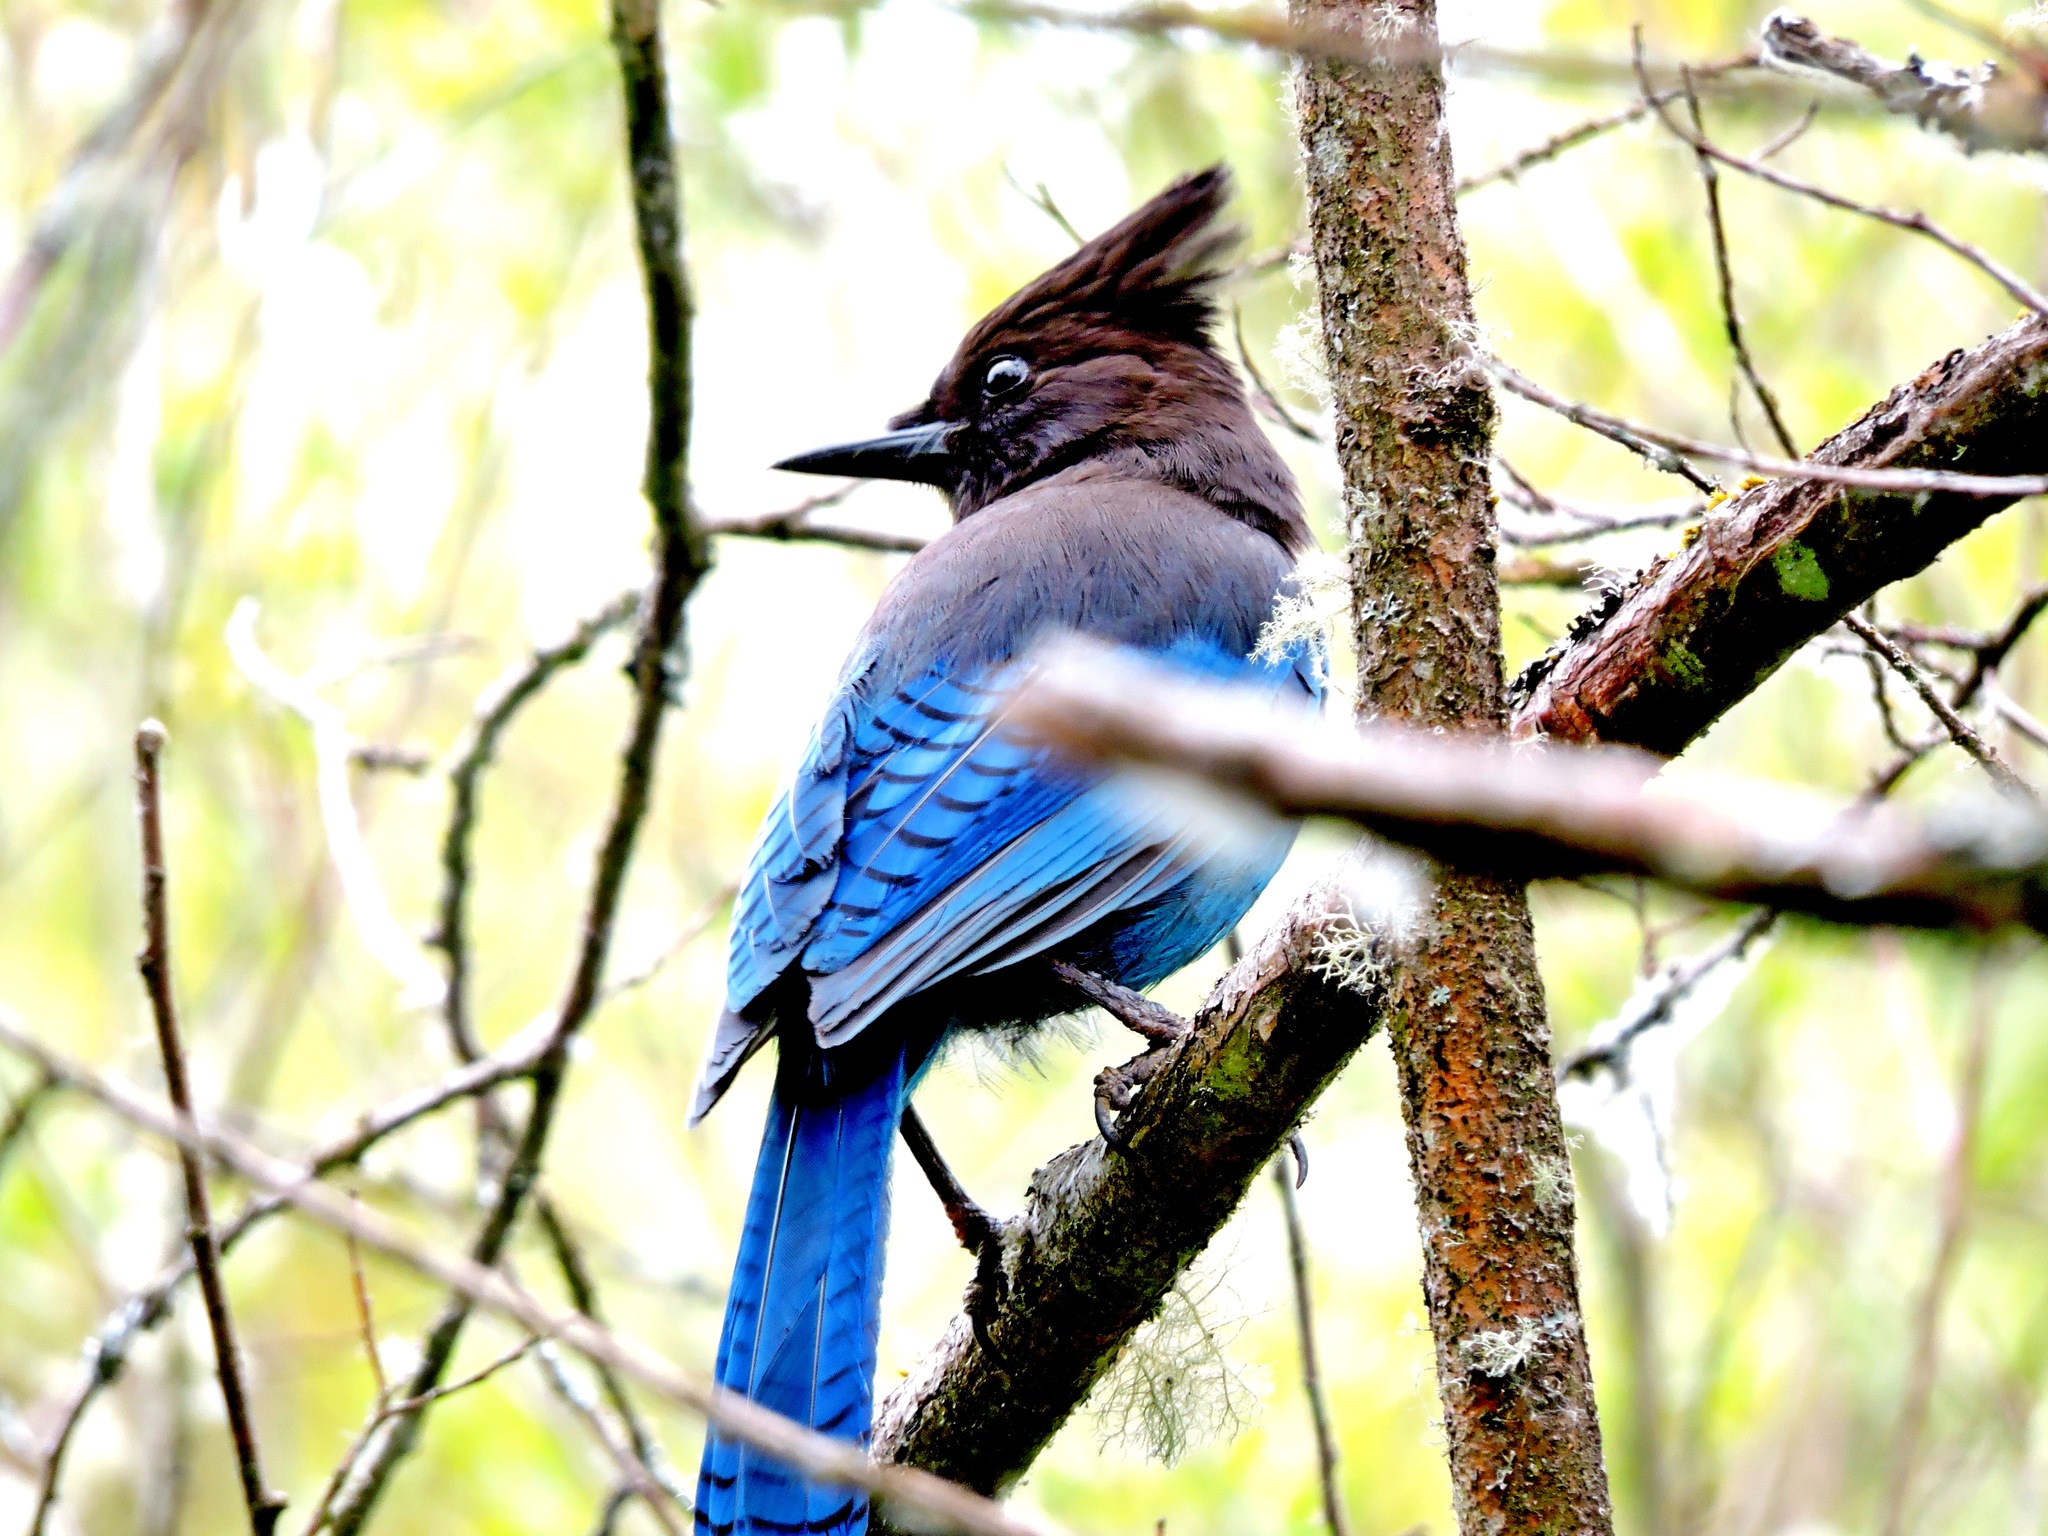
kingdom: Animalia
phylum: Chordata
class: Aves
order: Passeriformes
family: Corvidae
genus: Cyanocitta
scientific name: Cyanocitta stelleri
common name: Steller's jay
